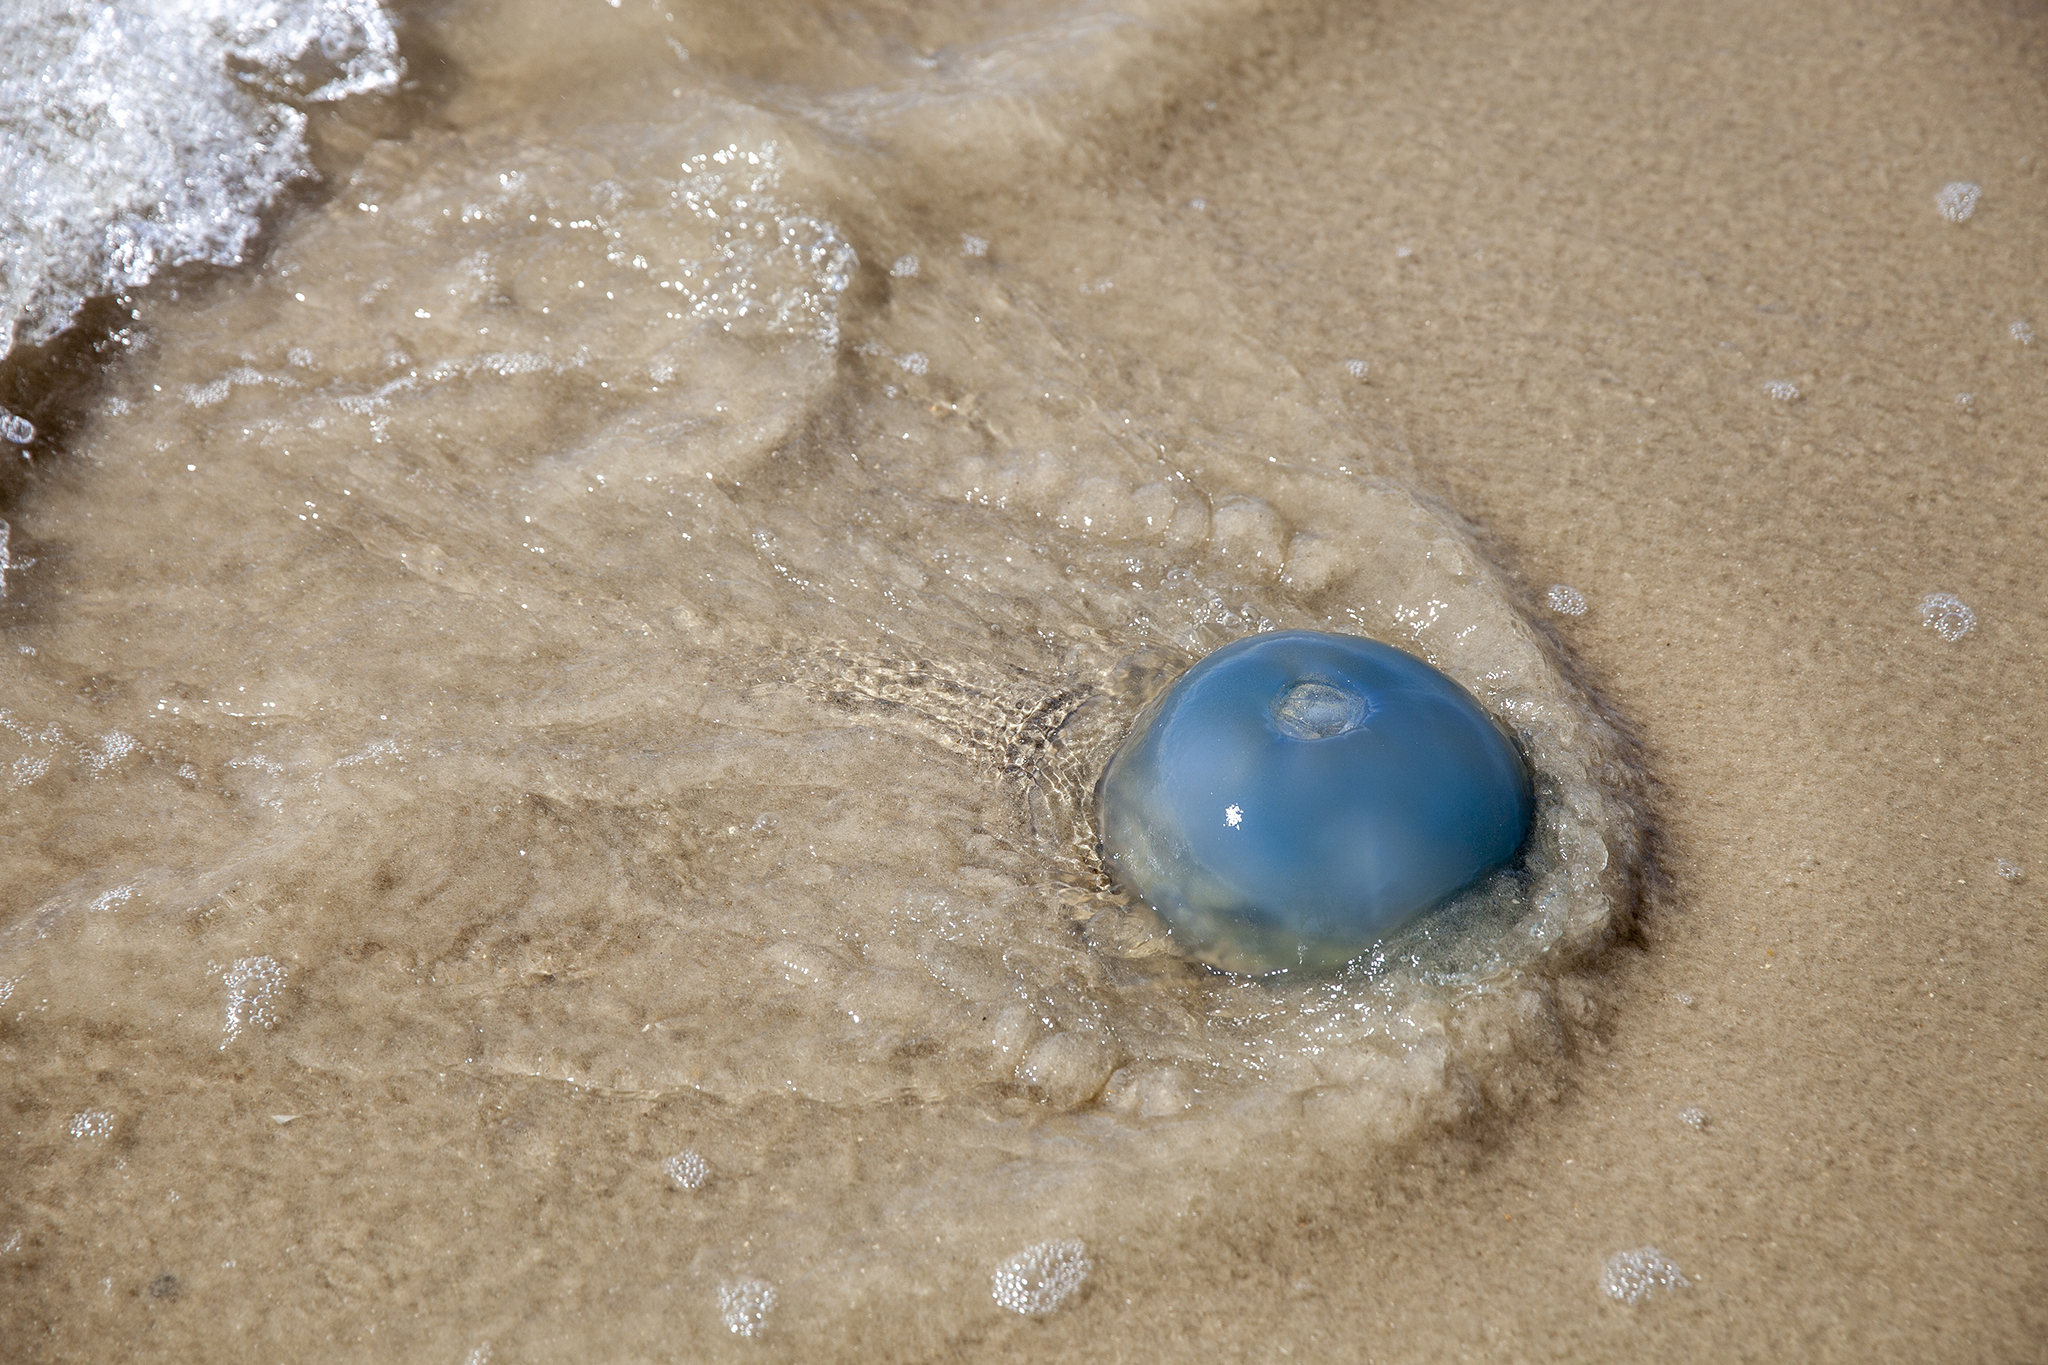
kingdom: Animalia
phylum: Cnidaria
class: Scyphozoa
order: Rhizostomeae
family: Rhizostomatidae
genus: Rhizostoma
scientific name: Rhizostoma octopus
